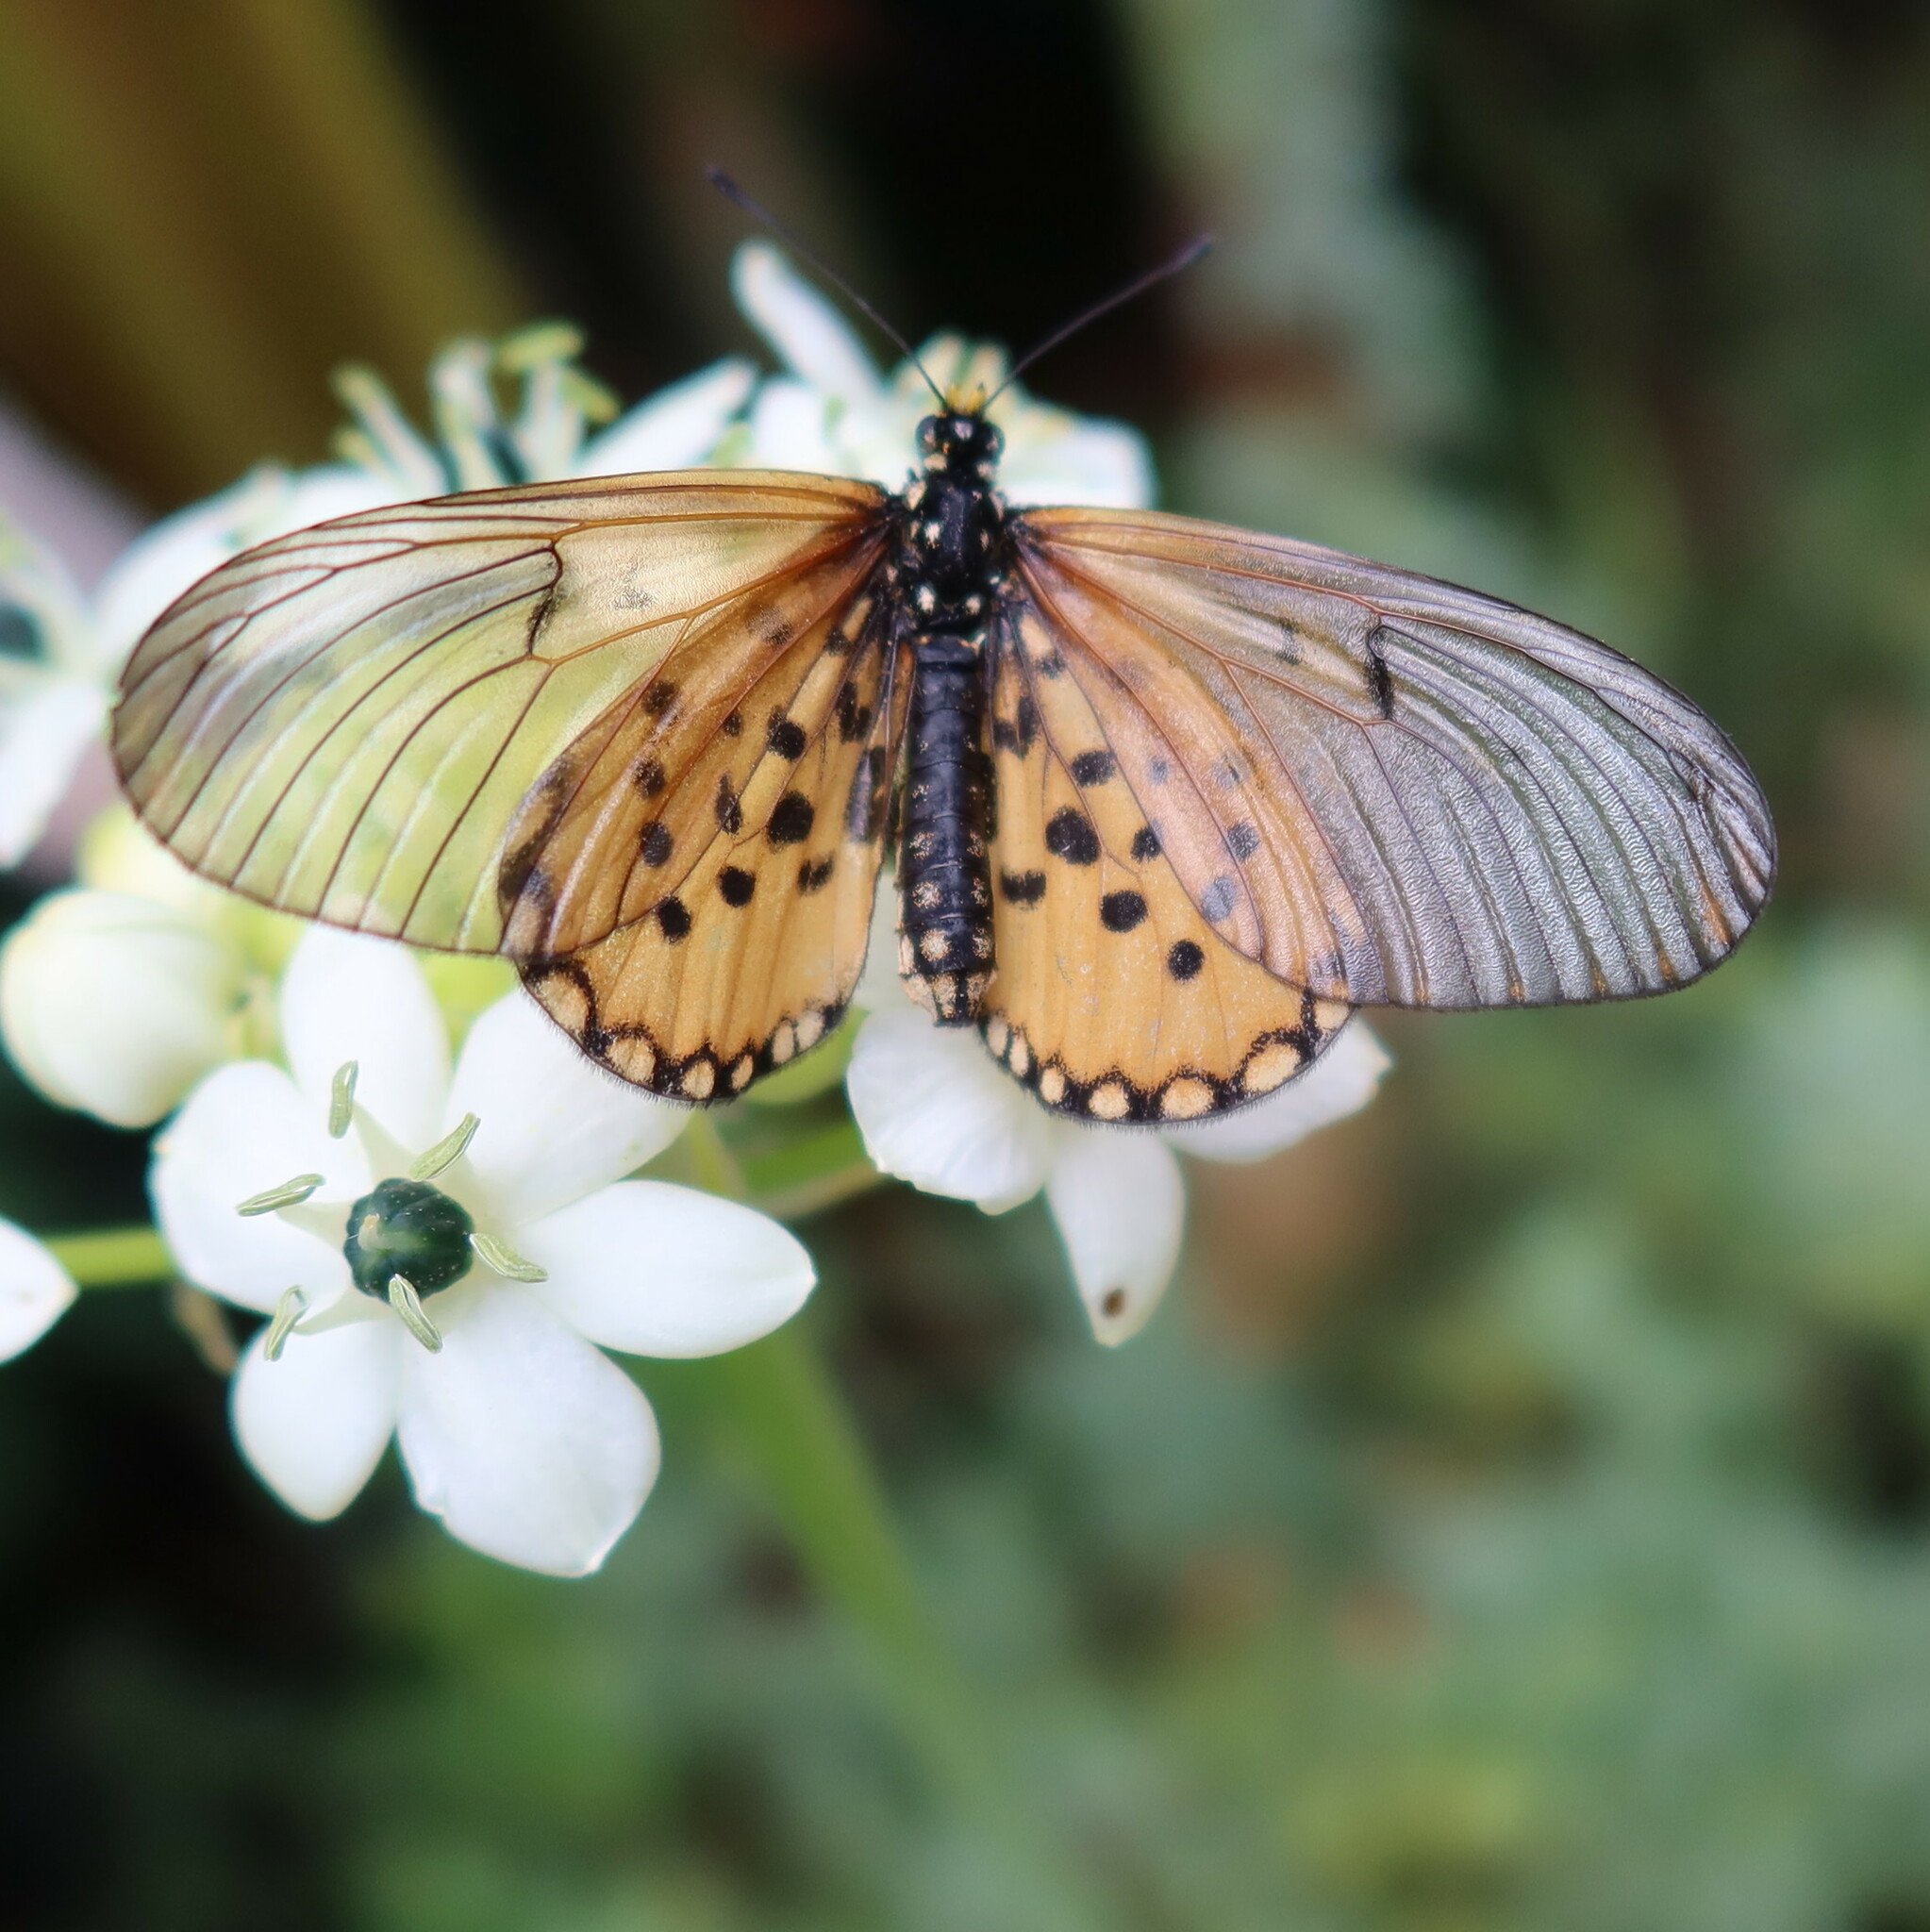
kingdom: Animalia
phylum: Arthropoda
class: Insecta
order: Lepidoptera
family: Nymphalidae
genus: Acraea
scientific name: Acraea horta
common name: Garden acraea
